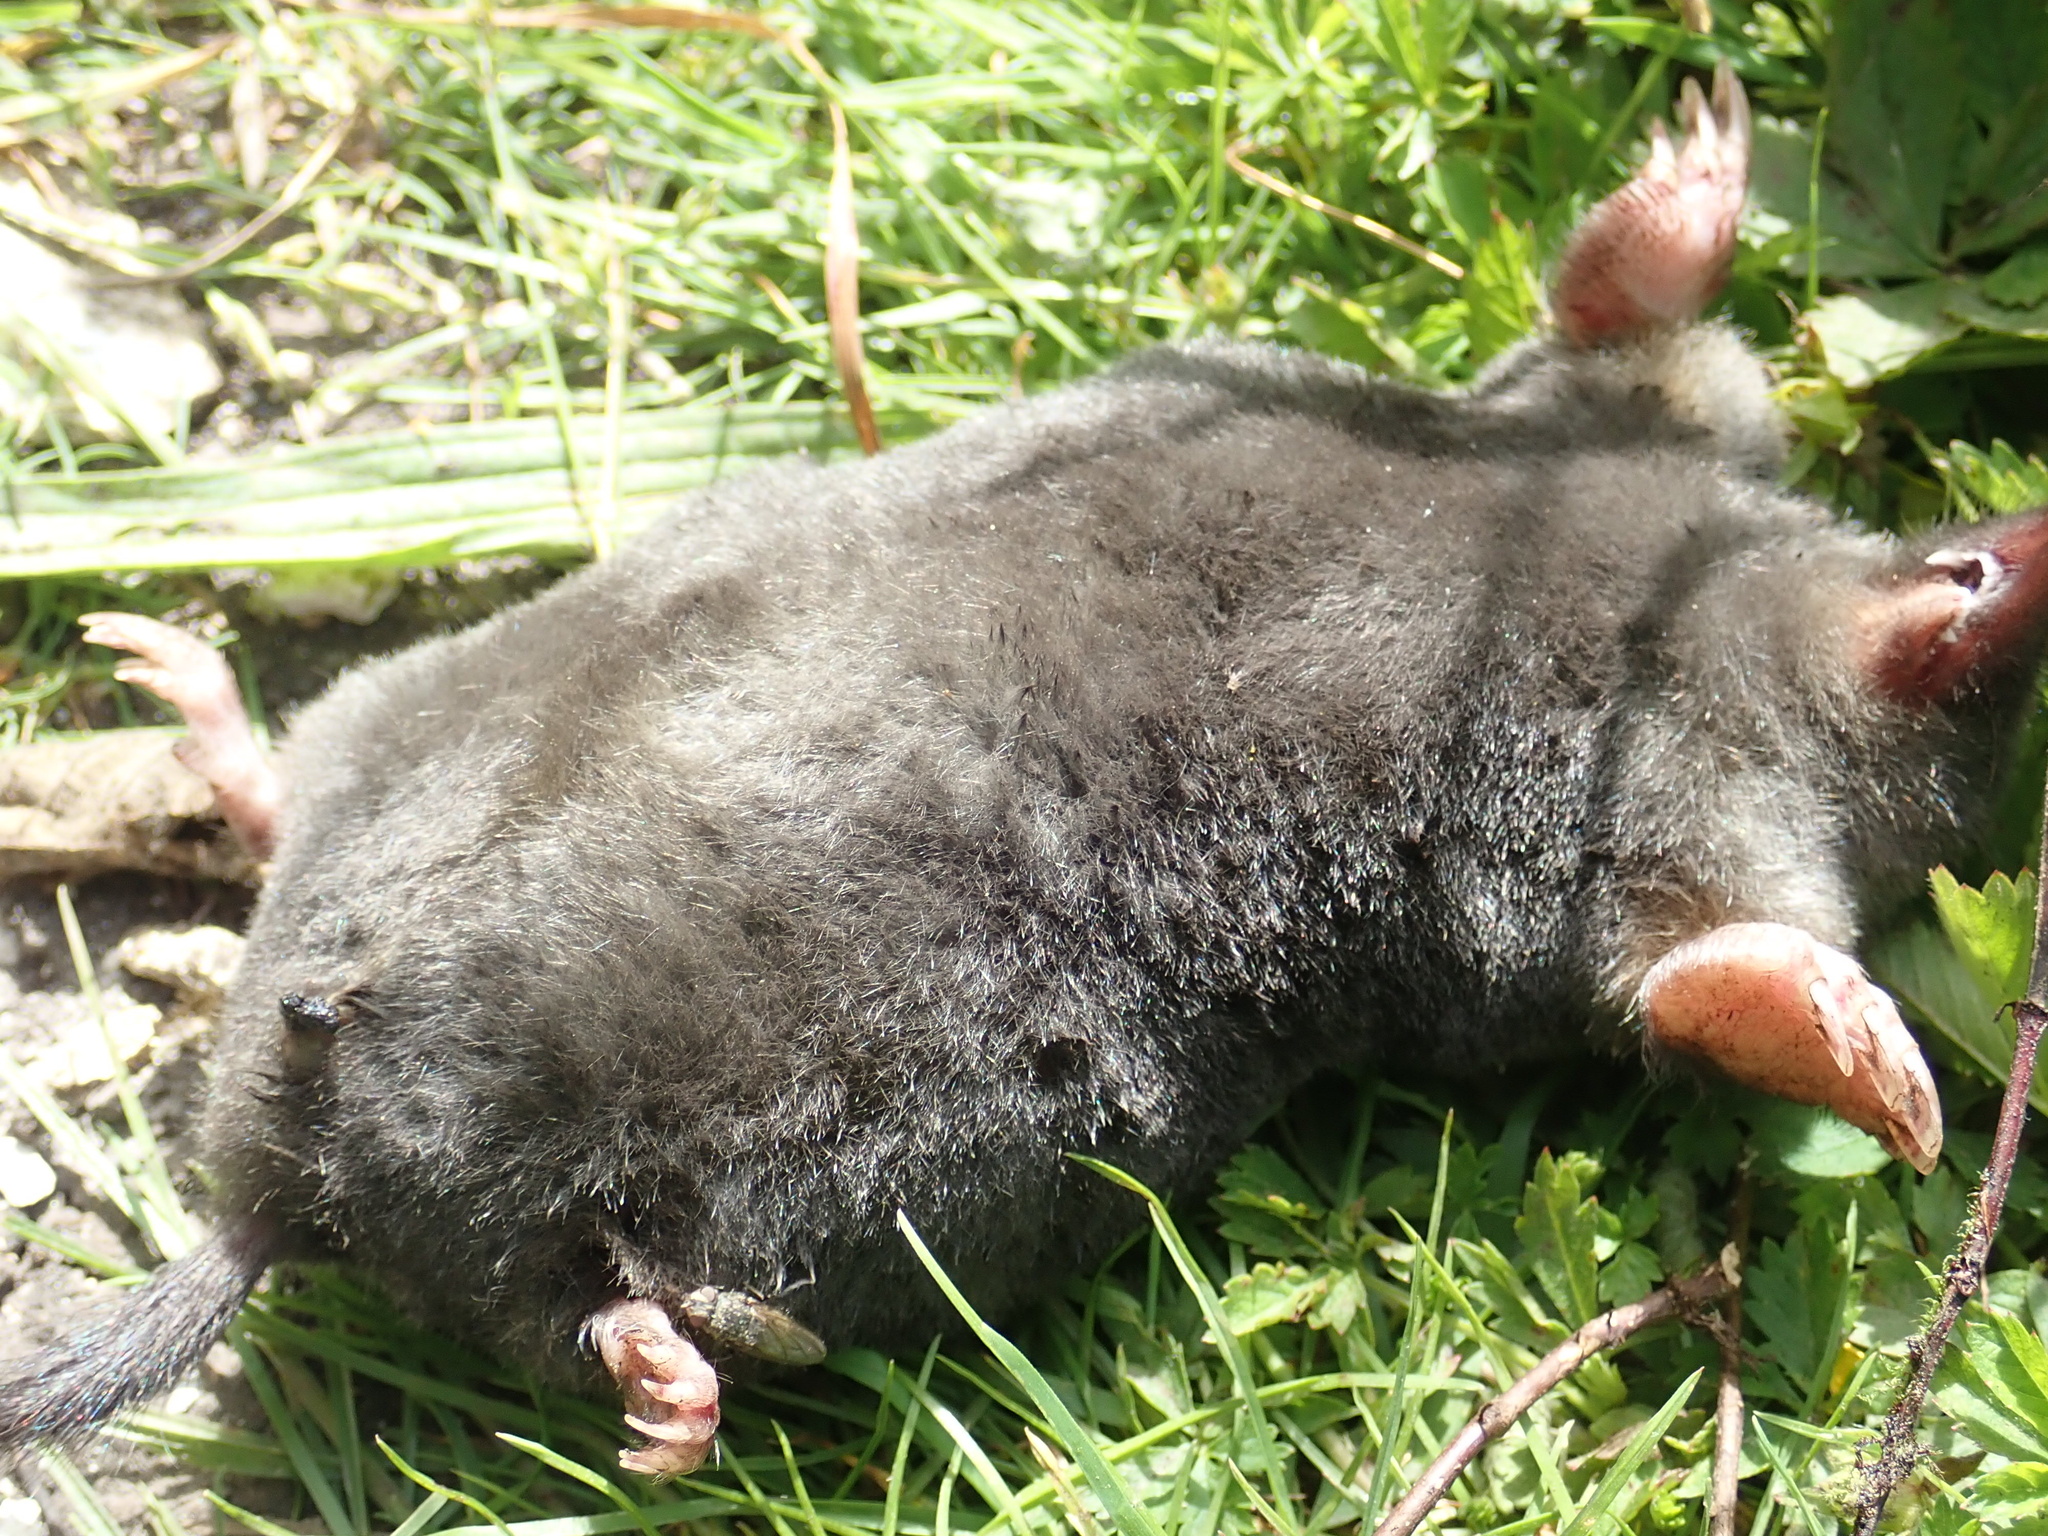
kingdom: Animalia
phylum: Chordata
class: Mammalia
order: Soricomorpha
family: Talpidae
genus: Talpa
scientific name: Talpa europaea
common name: European mole
